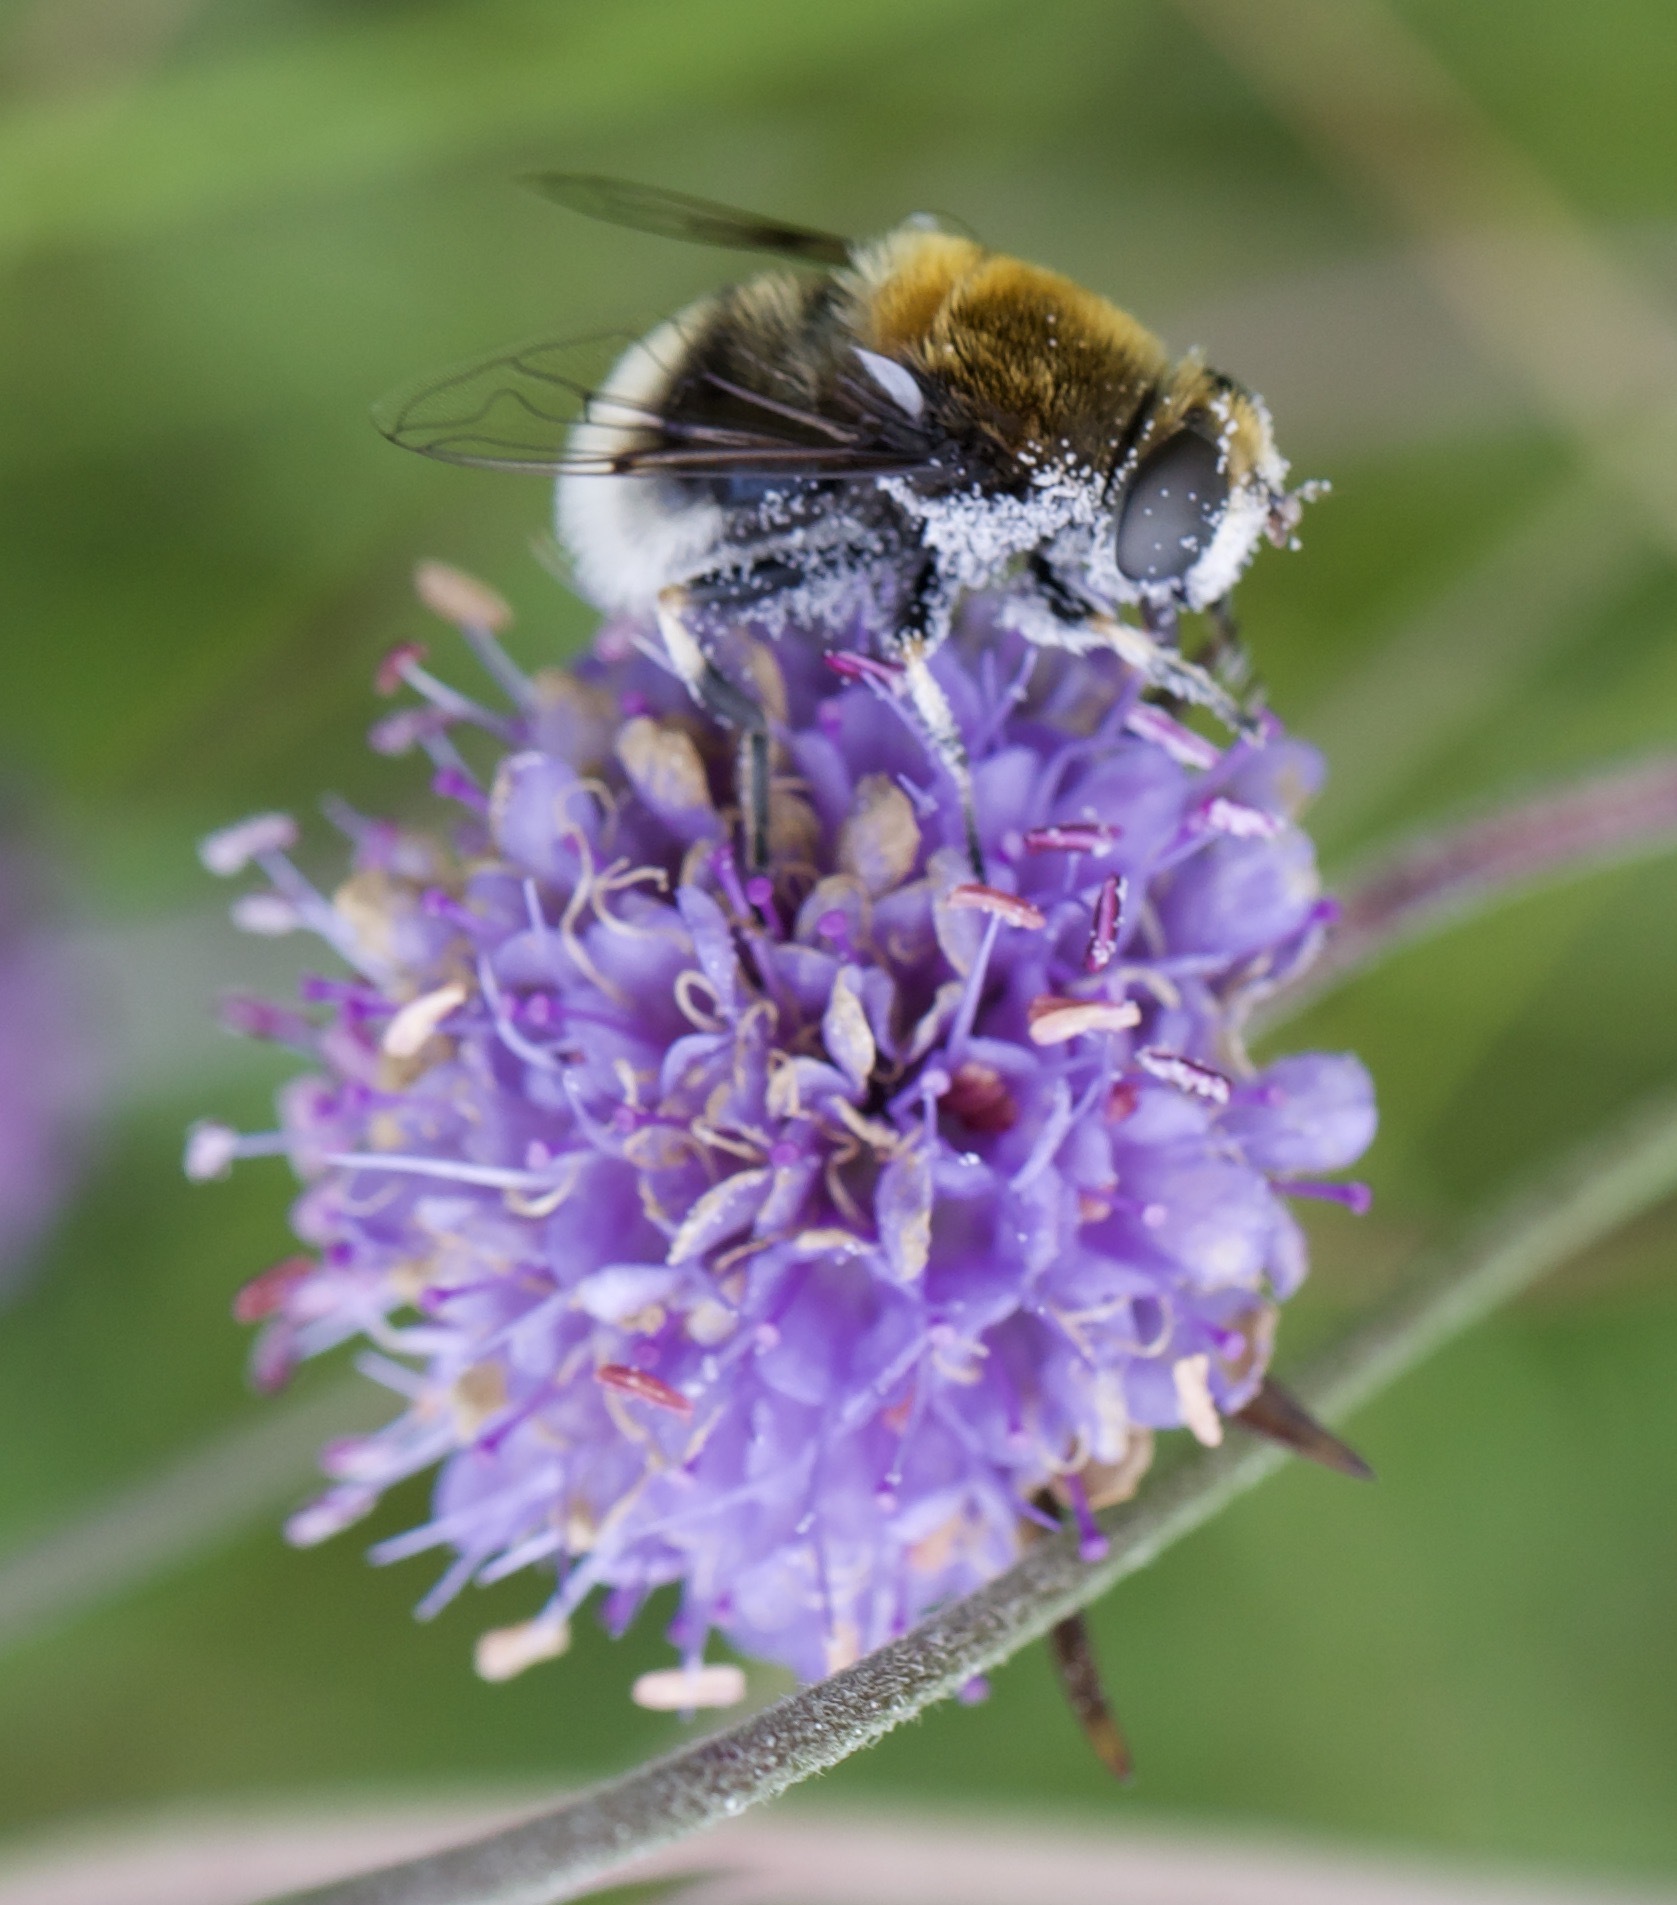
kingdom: Animalia
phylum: Arthropoda
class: Insecta
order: Diptera
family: Syrphidae
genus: Eristalis
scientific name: Eristalis intricaria
